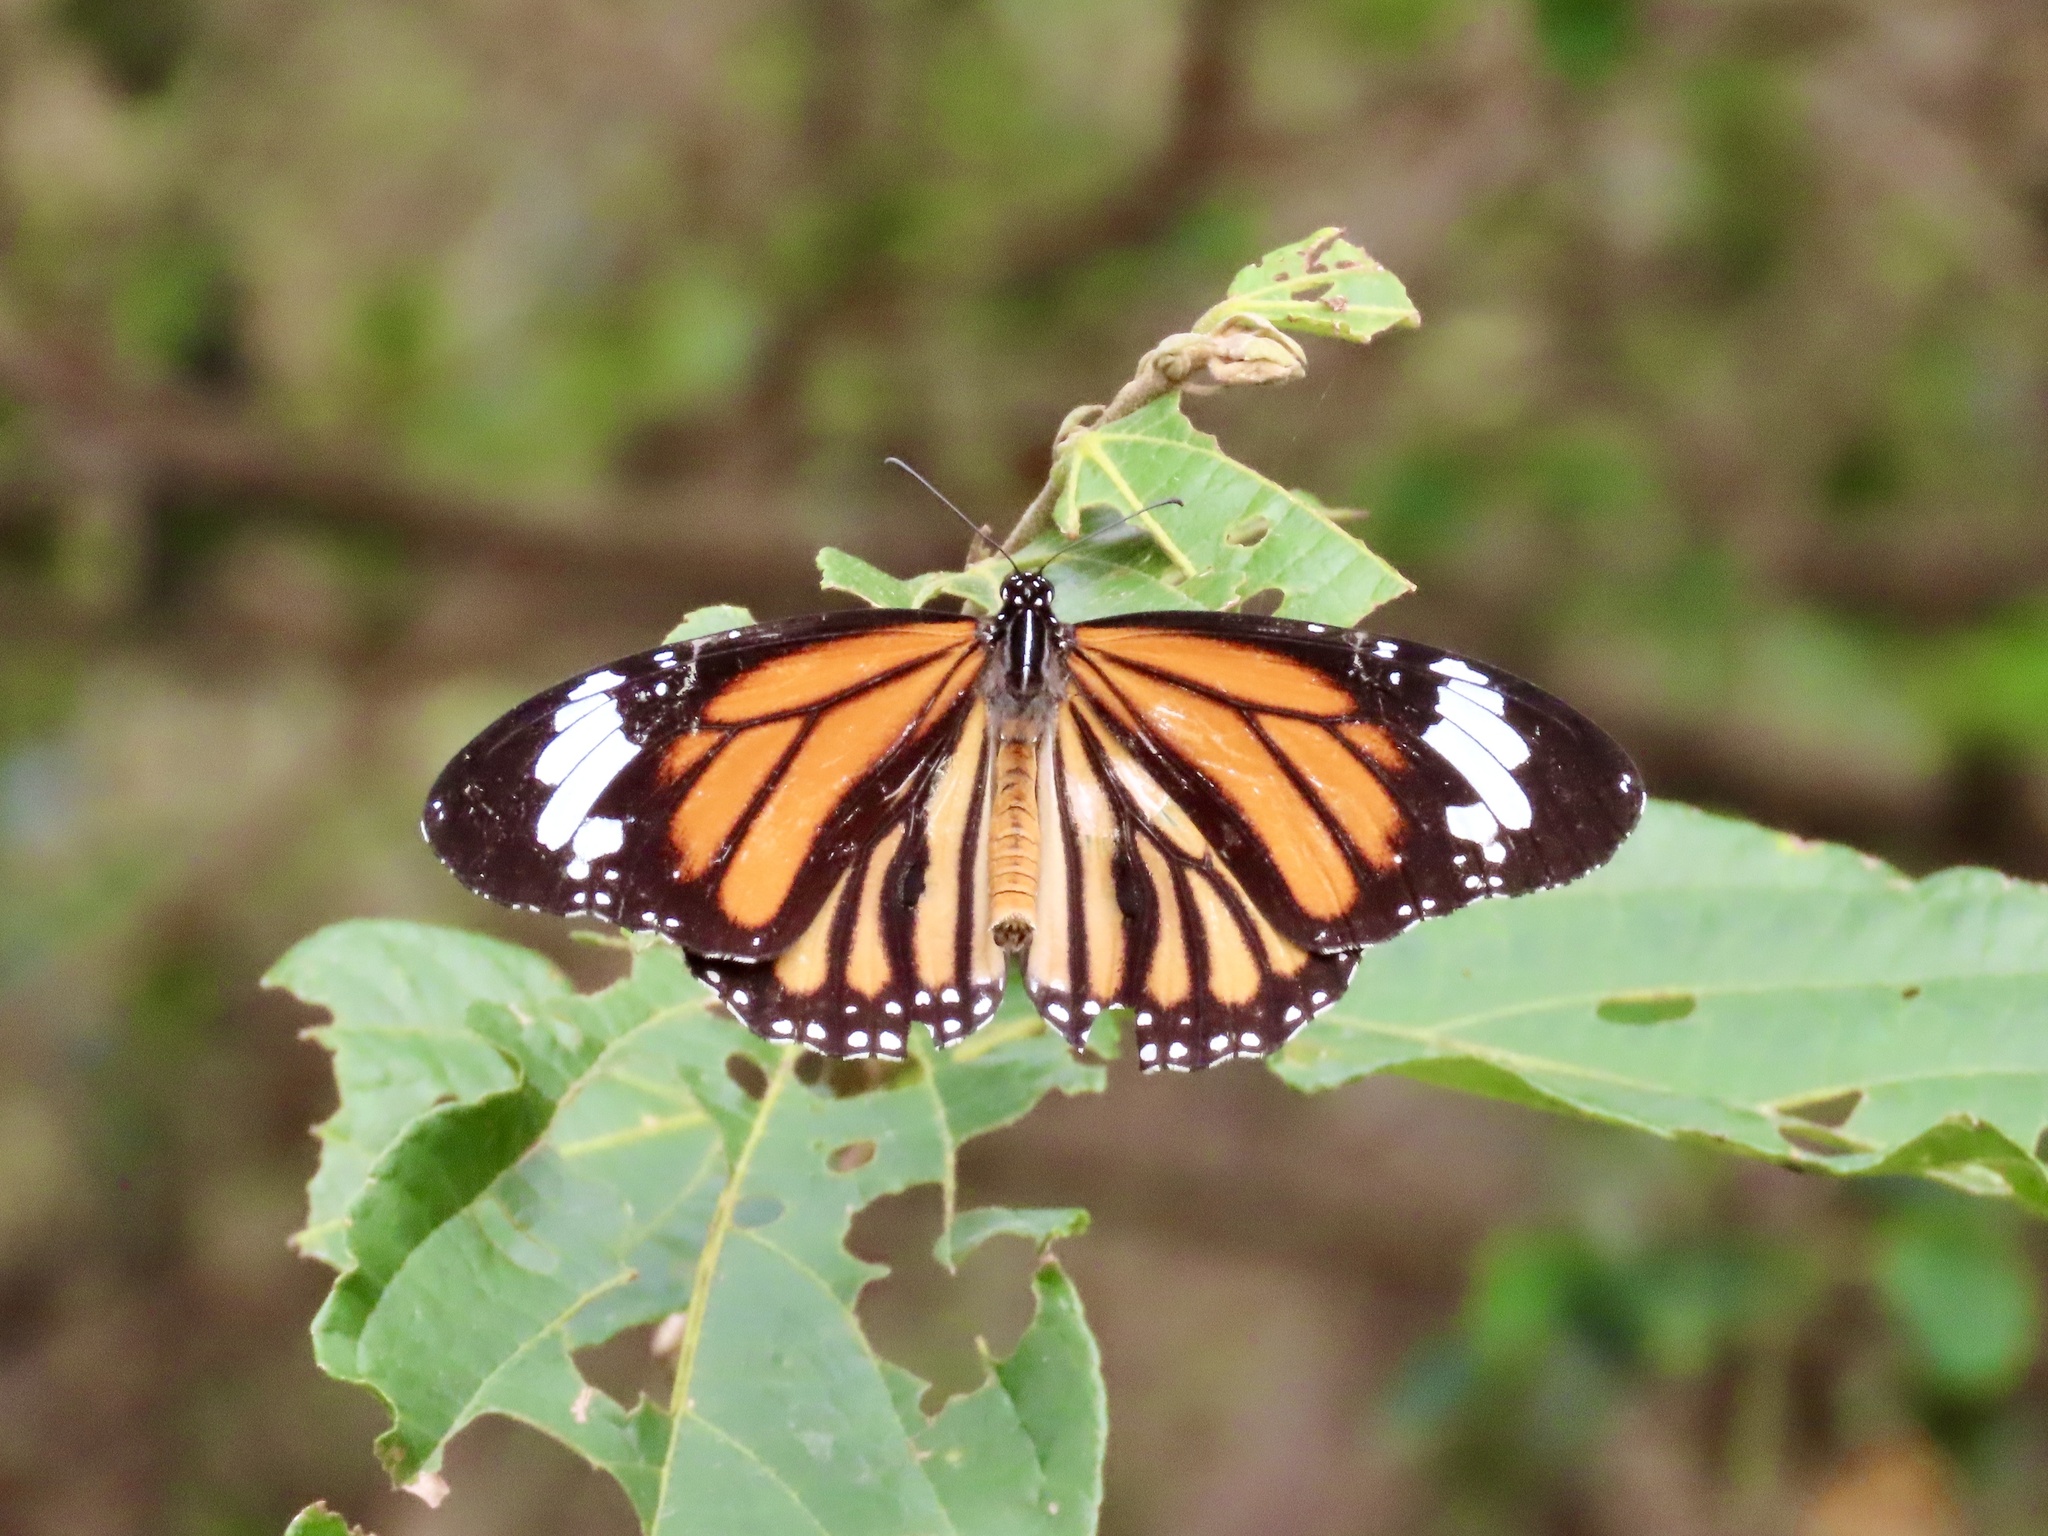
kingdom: Animalia
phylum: Arthropoda
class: Insecta
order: Lepidoptera
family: Nymphalidae
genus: Danaus
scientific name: Danaus genutia
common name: Common tiger butterfly
